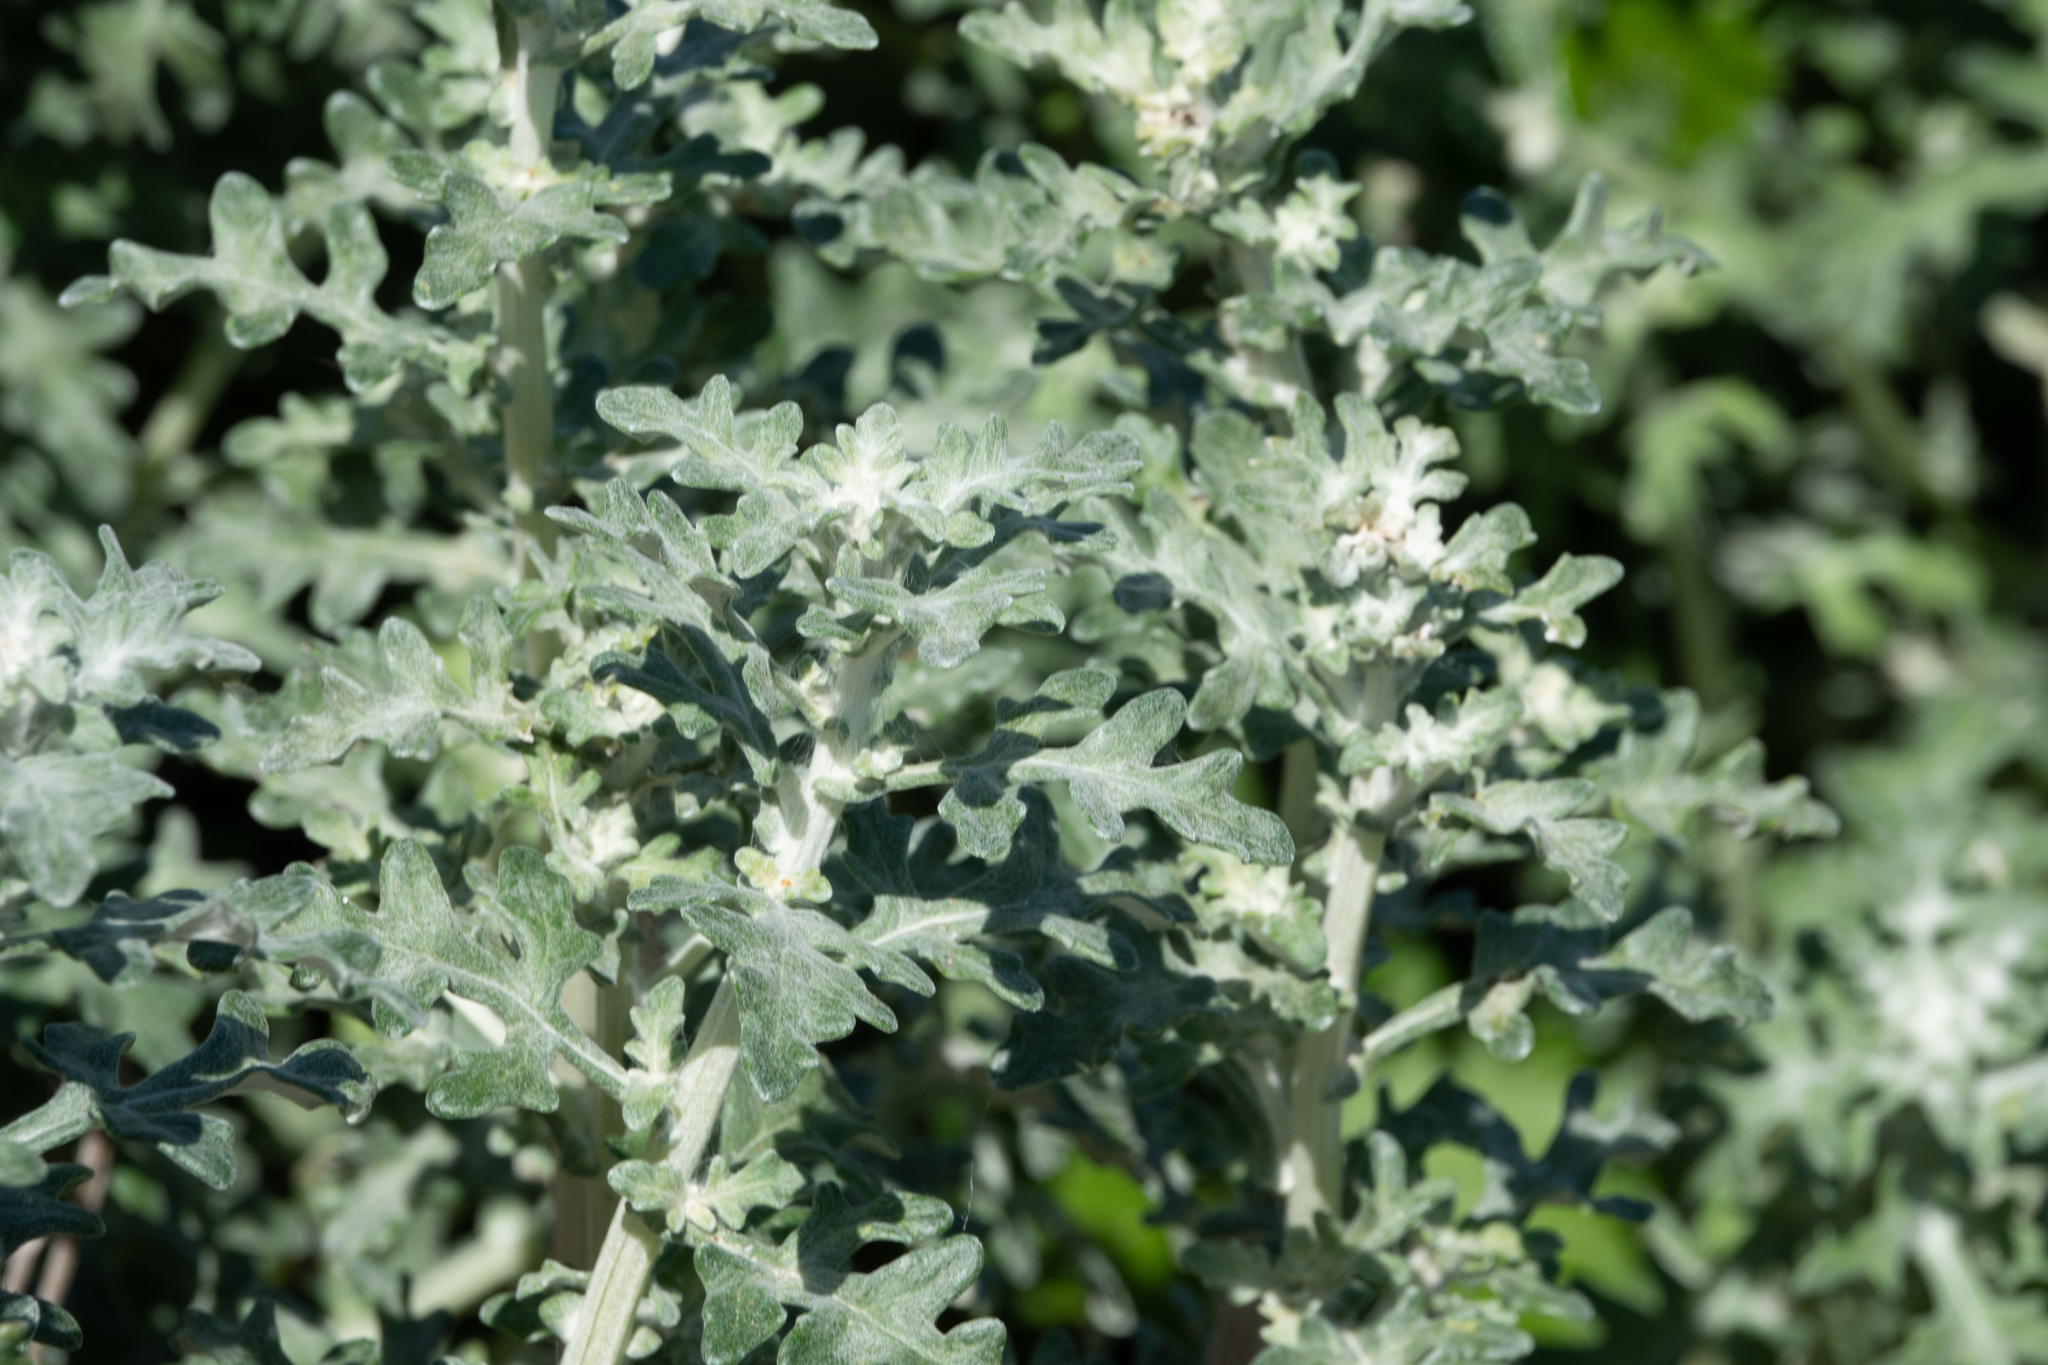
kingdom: Plantae
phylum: Tracheophyta
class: Magnoliopsida
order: Asterales
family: Asteraceae
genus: Eriophyllum
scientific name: Eriophyllum staechadifolium
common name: Lizardtail
